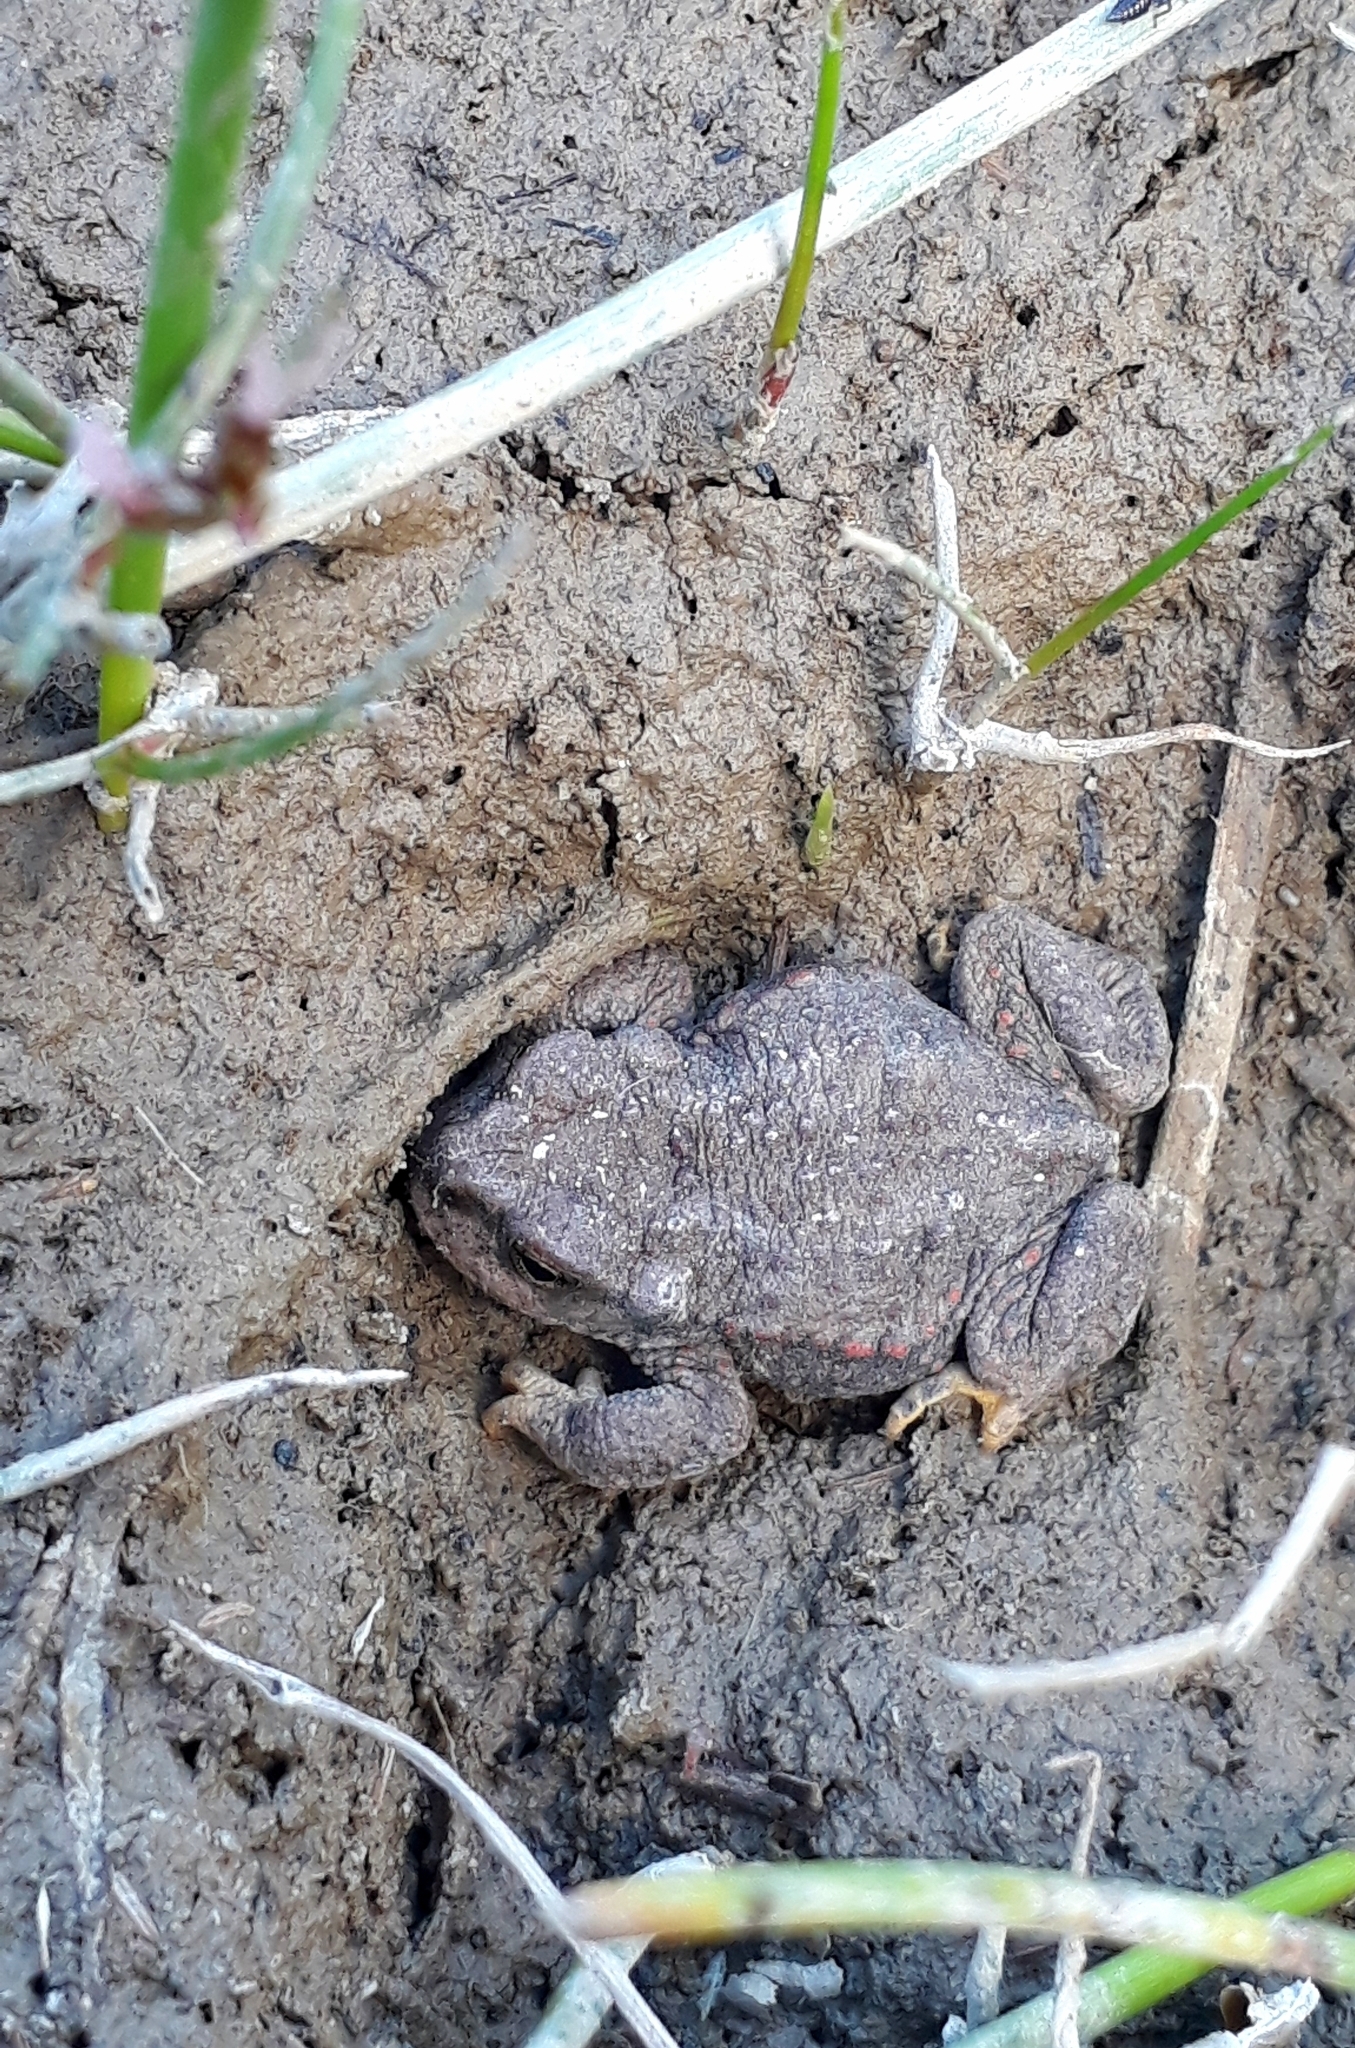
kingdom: Animalia
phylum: Chordata
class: Amphibia
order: Anura
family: Bufonidae
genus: Rhinella
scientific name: Rhinella spinulosa
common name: Warty toad
